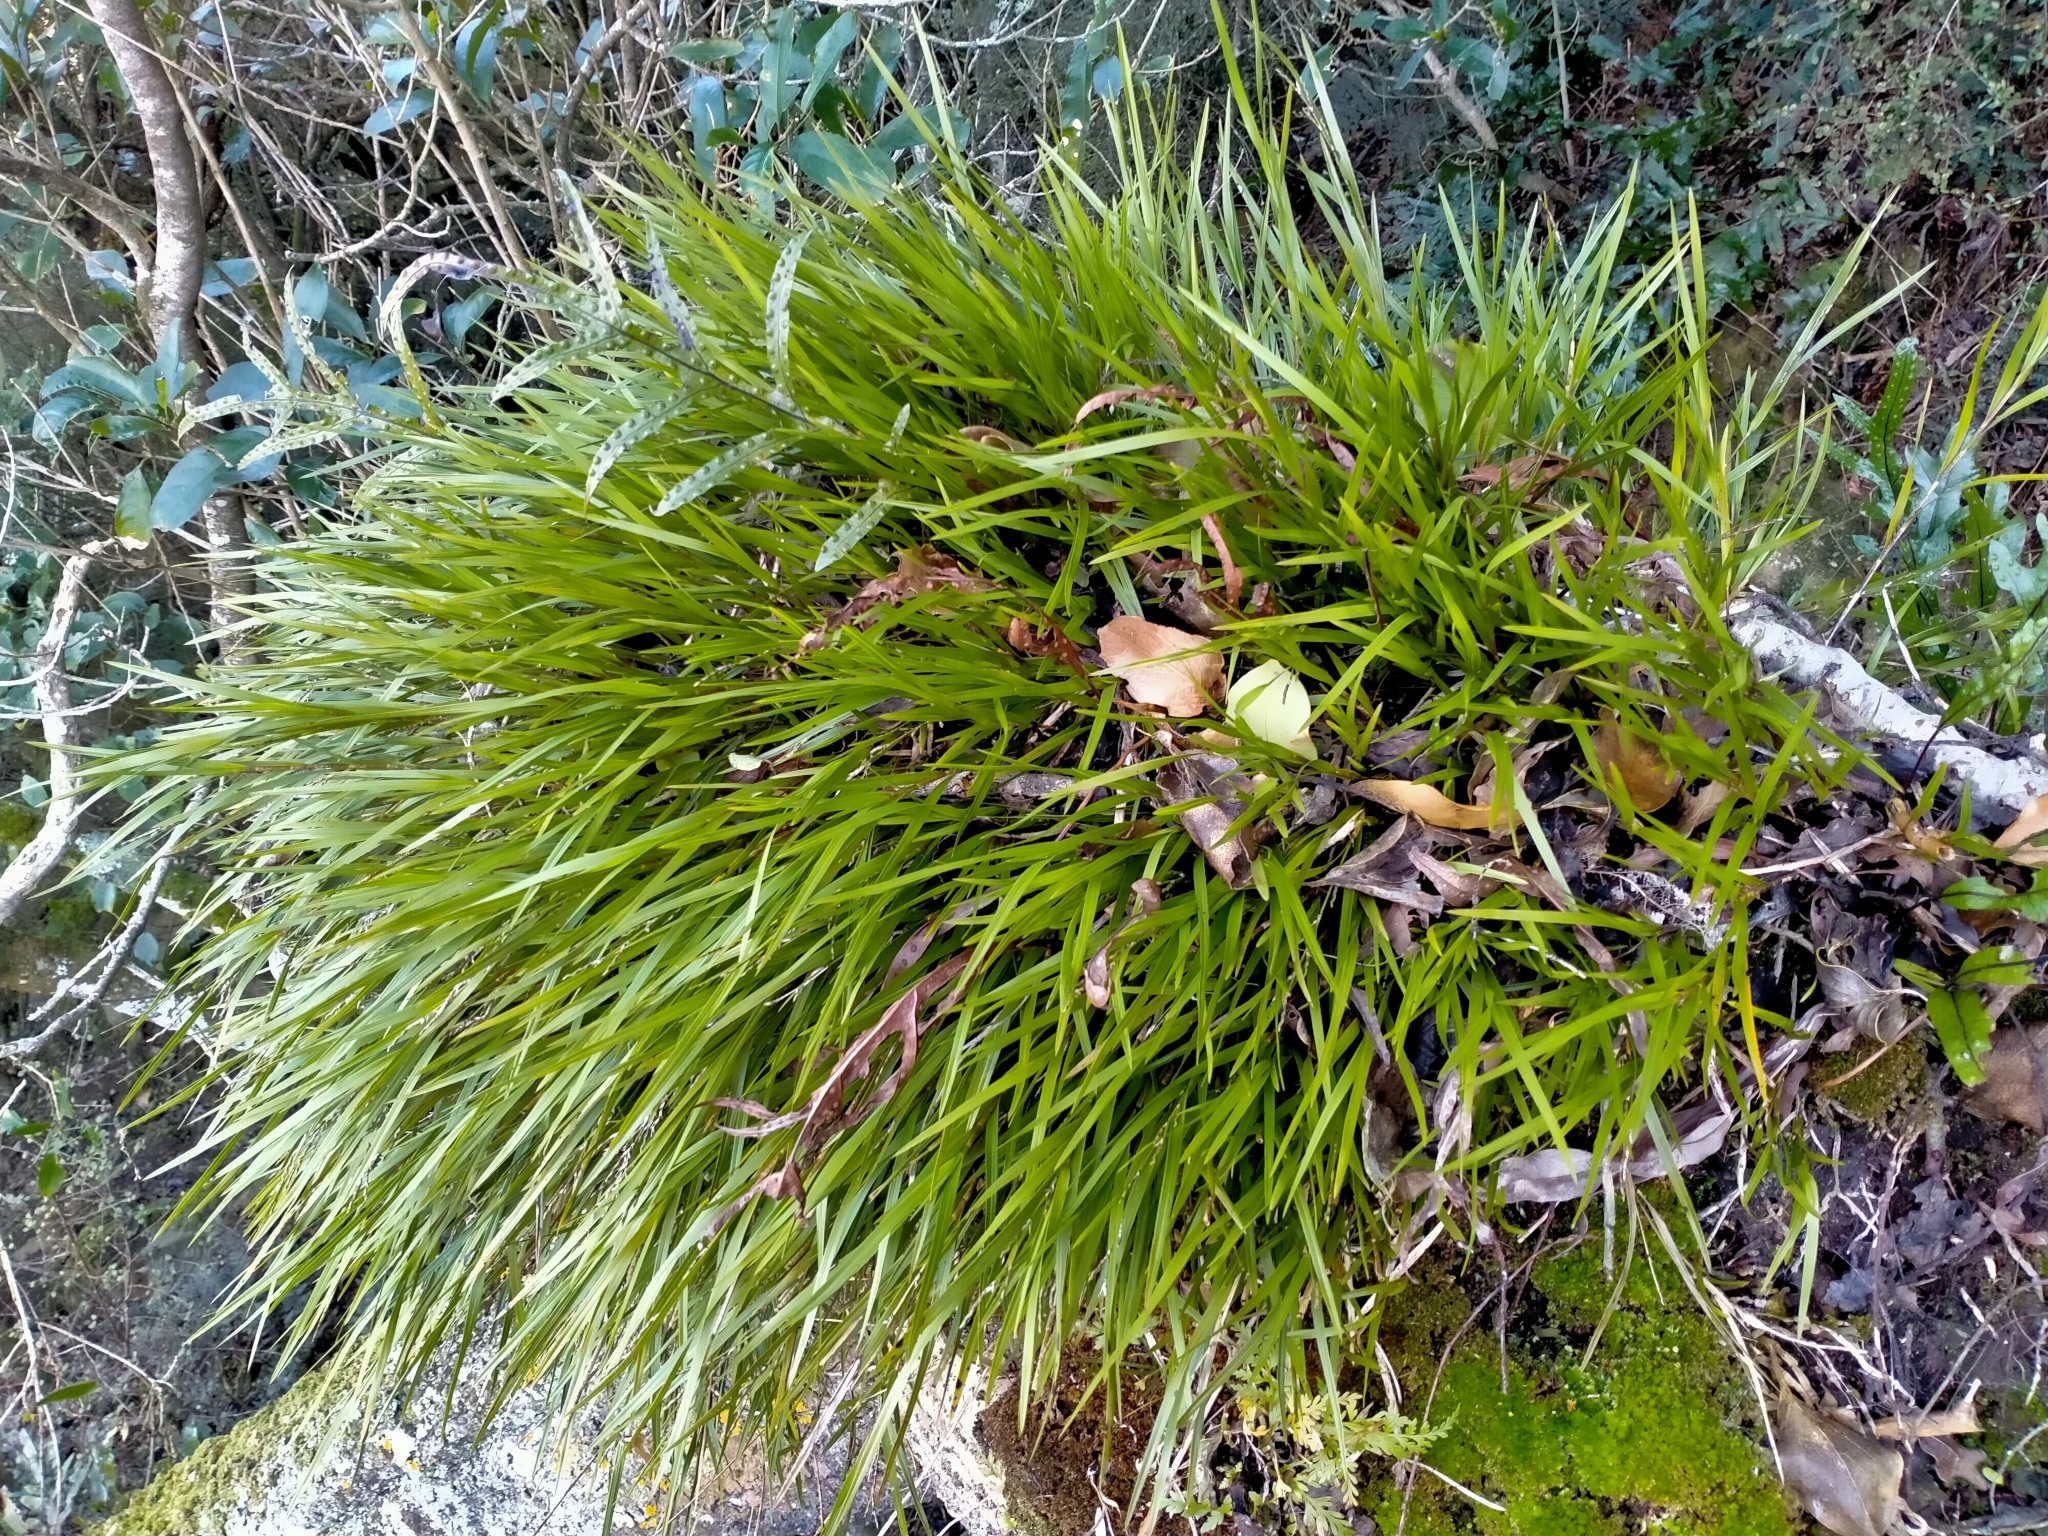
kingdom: Plantae
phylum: Tracheophyta
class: Liliopsida
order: Asparagales
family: Orchidaceae
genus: Earina
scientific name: Earina mucronata
